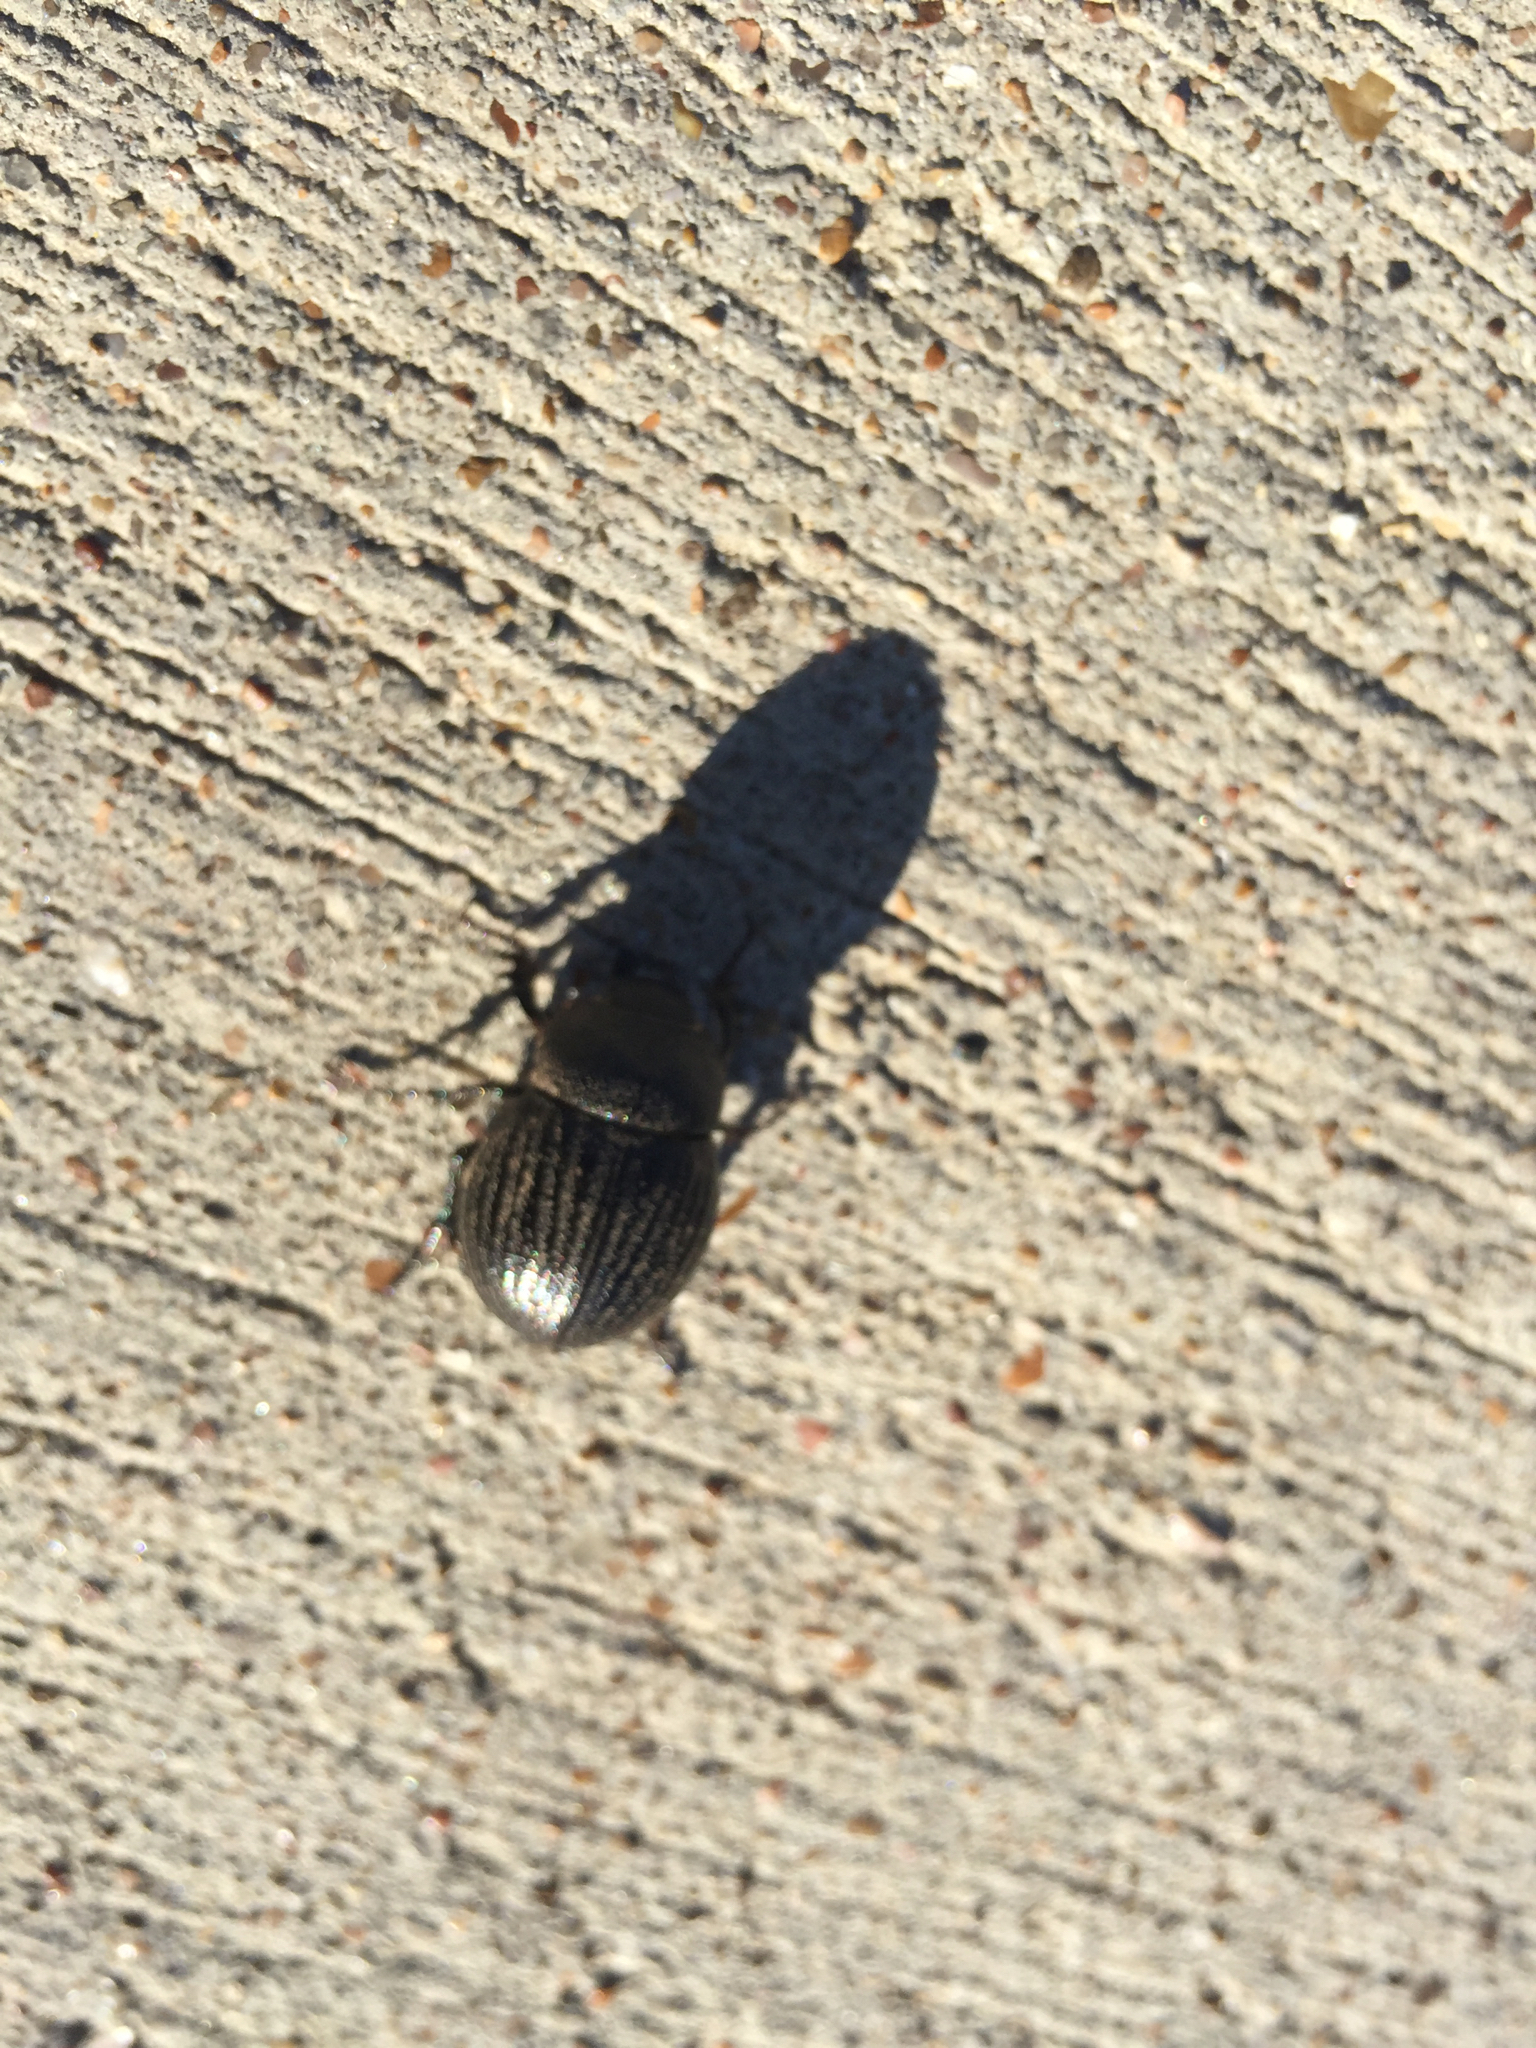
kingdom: Animalia
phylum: Arthropoda
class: Insecta
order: Coleoptera
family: Scarabaeidae
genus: Phyllophaga
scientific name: Phyllophaga cribrosa
